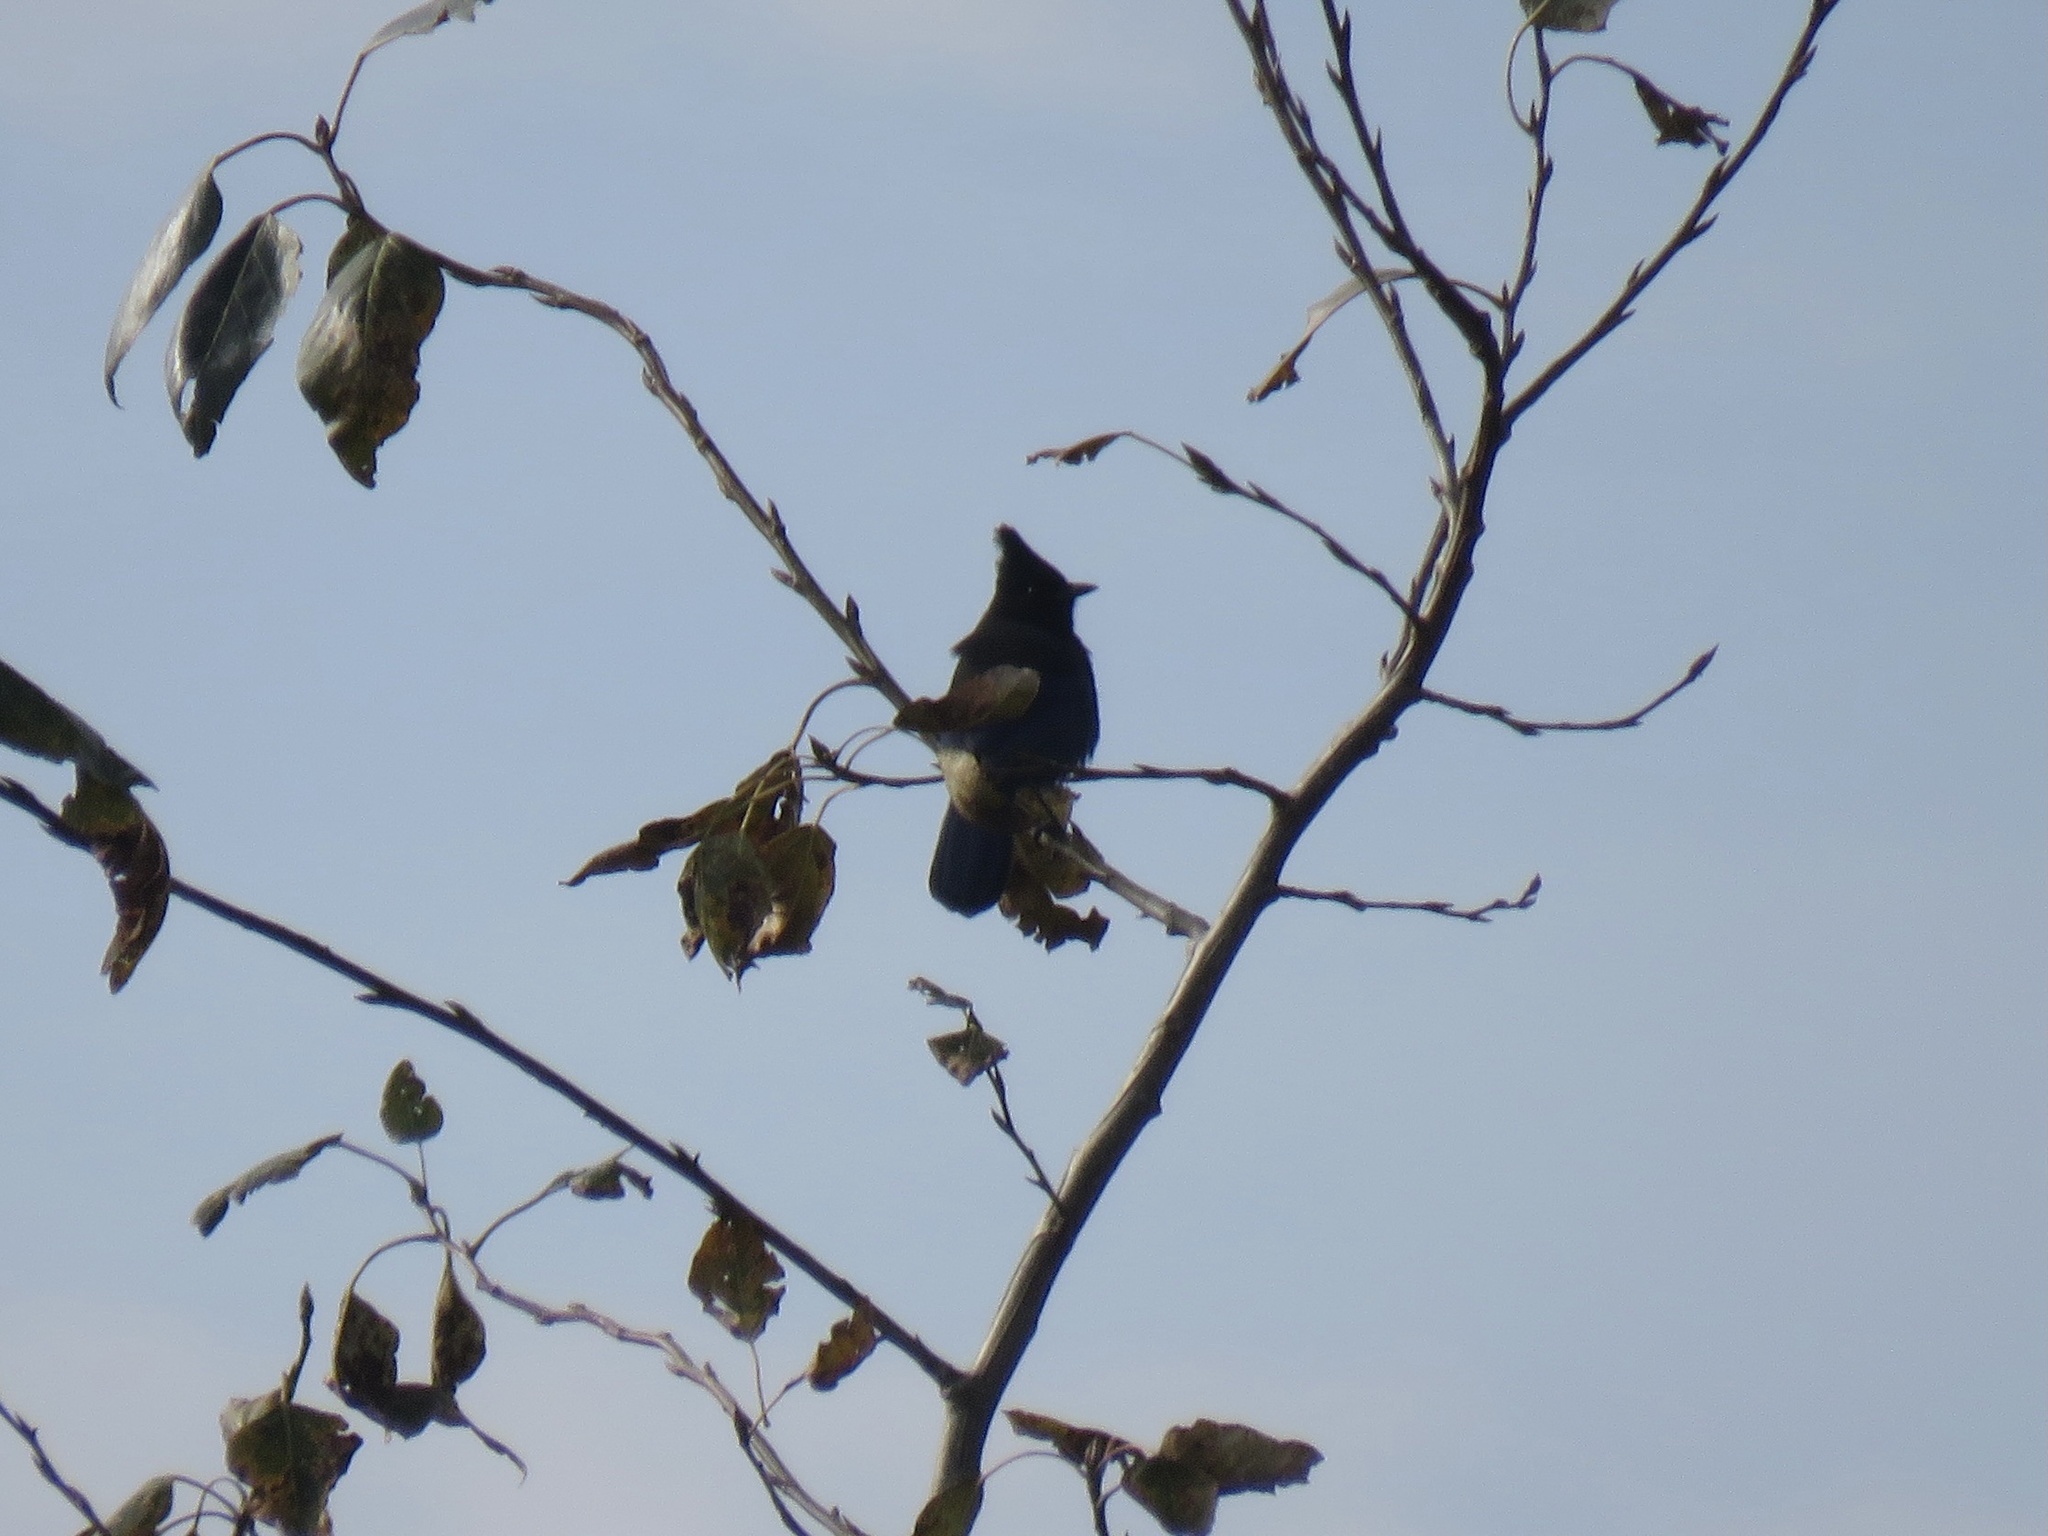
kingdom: Animalia
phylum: Chordata
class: Aves
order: Passeriformes
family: Corvidae
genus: Cyanocitta
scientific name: Cyanocitta stelleri
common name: Steller's jay
